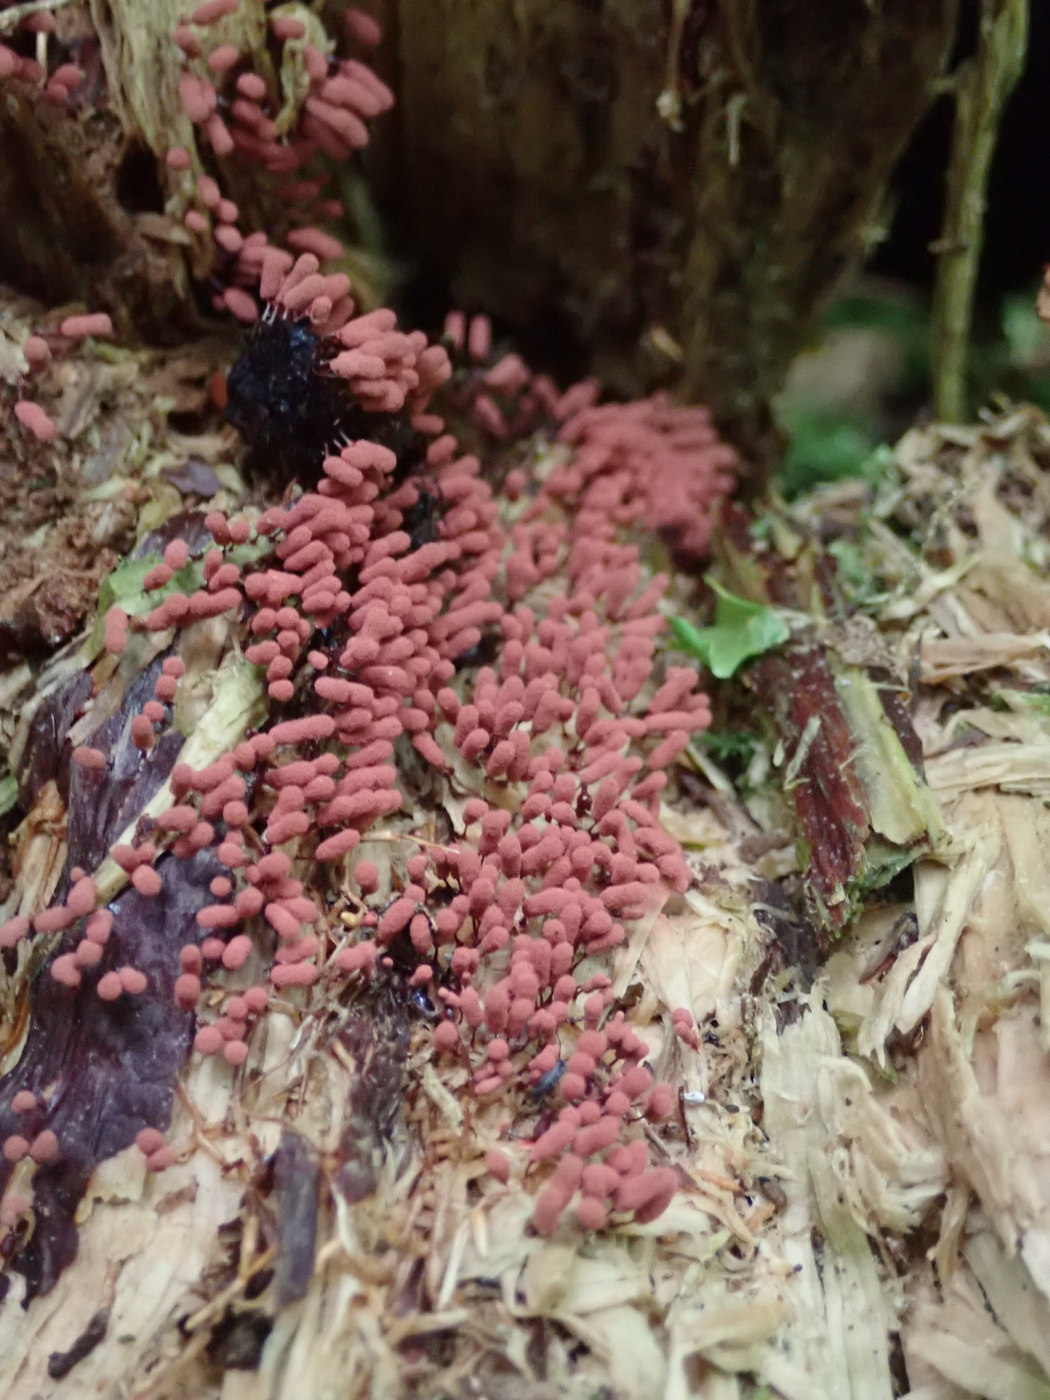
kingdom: Protozoa
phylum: Mycetozoa
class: Myxomycetes
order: Trichiales
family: Arcyriaceae
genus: Arcyria
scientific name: Arcyria denudata
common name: Carnival candy slime mold
